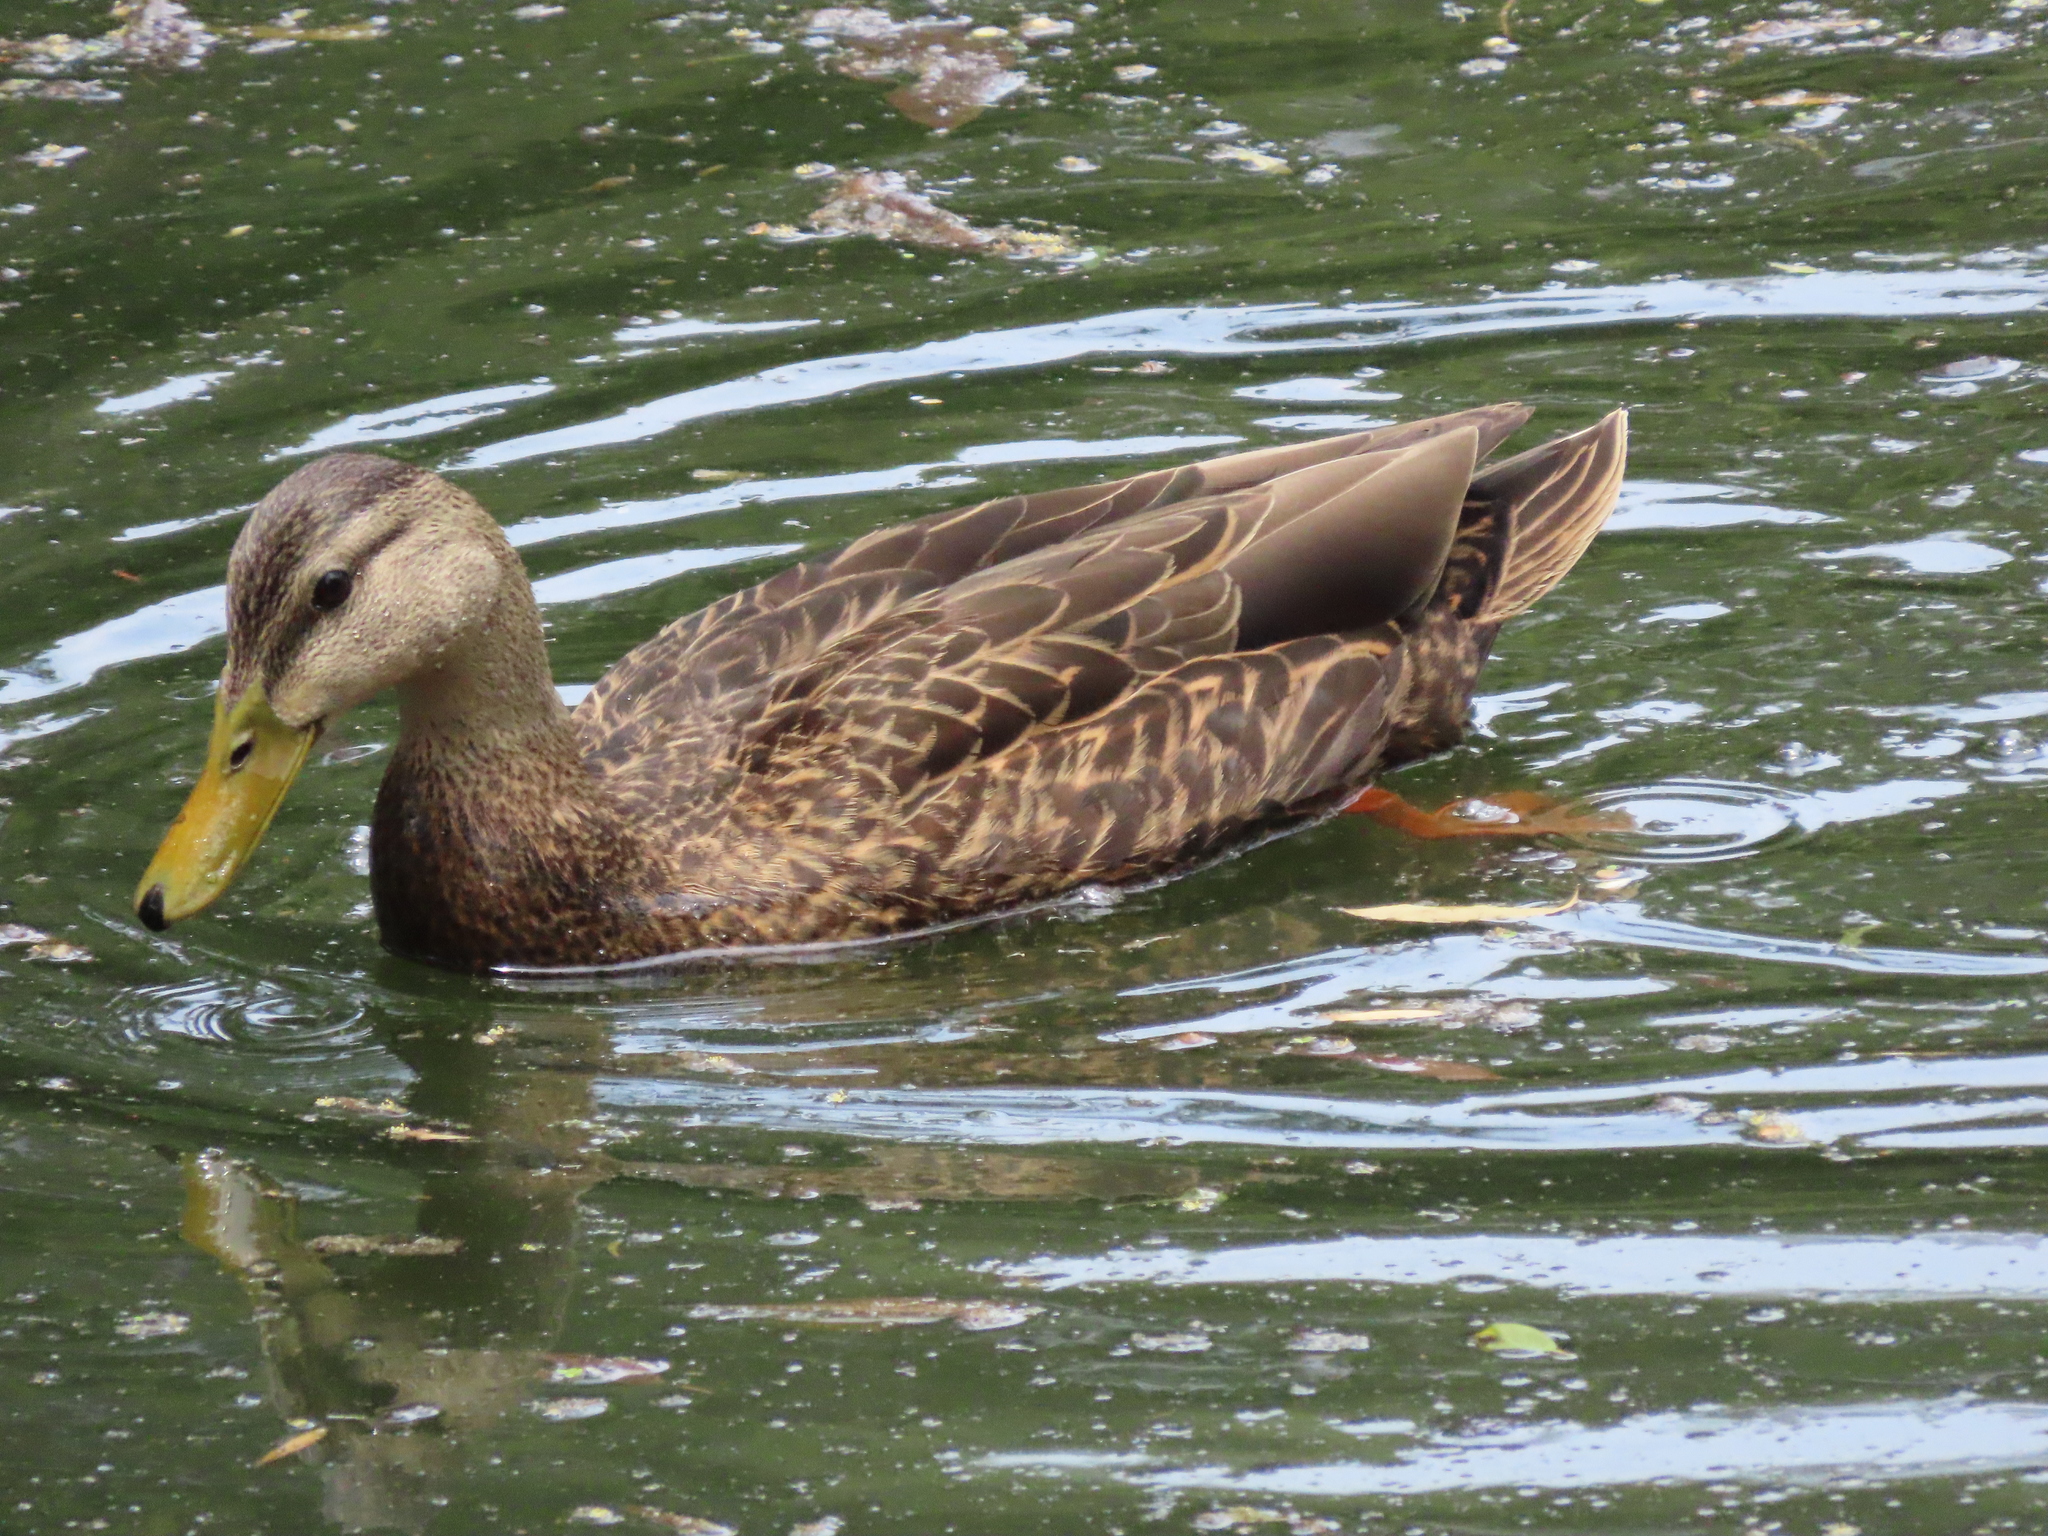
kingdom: Animalia
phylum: Chordata
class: Aves
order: Anseriformes
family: Anatidae
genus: Anas
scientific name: Anas diazi
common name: Mexican duck
